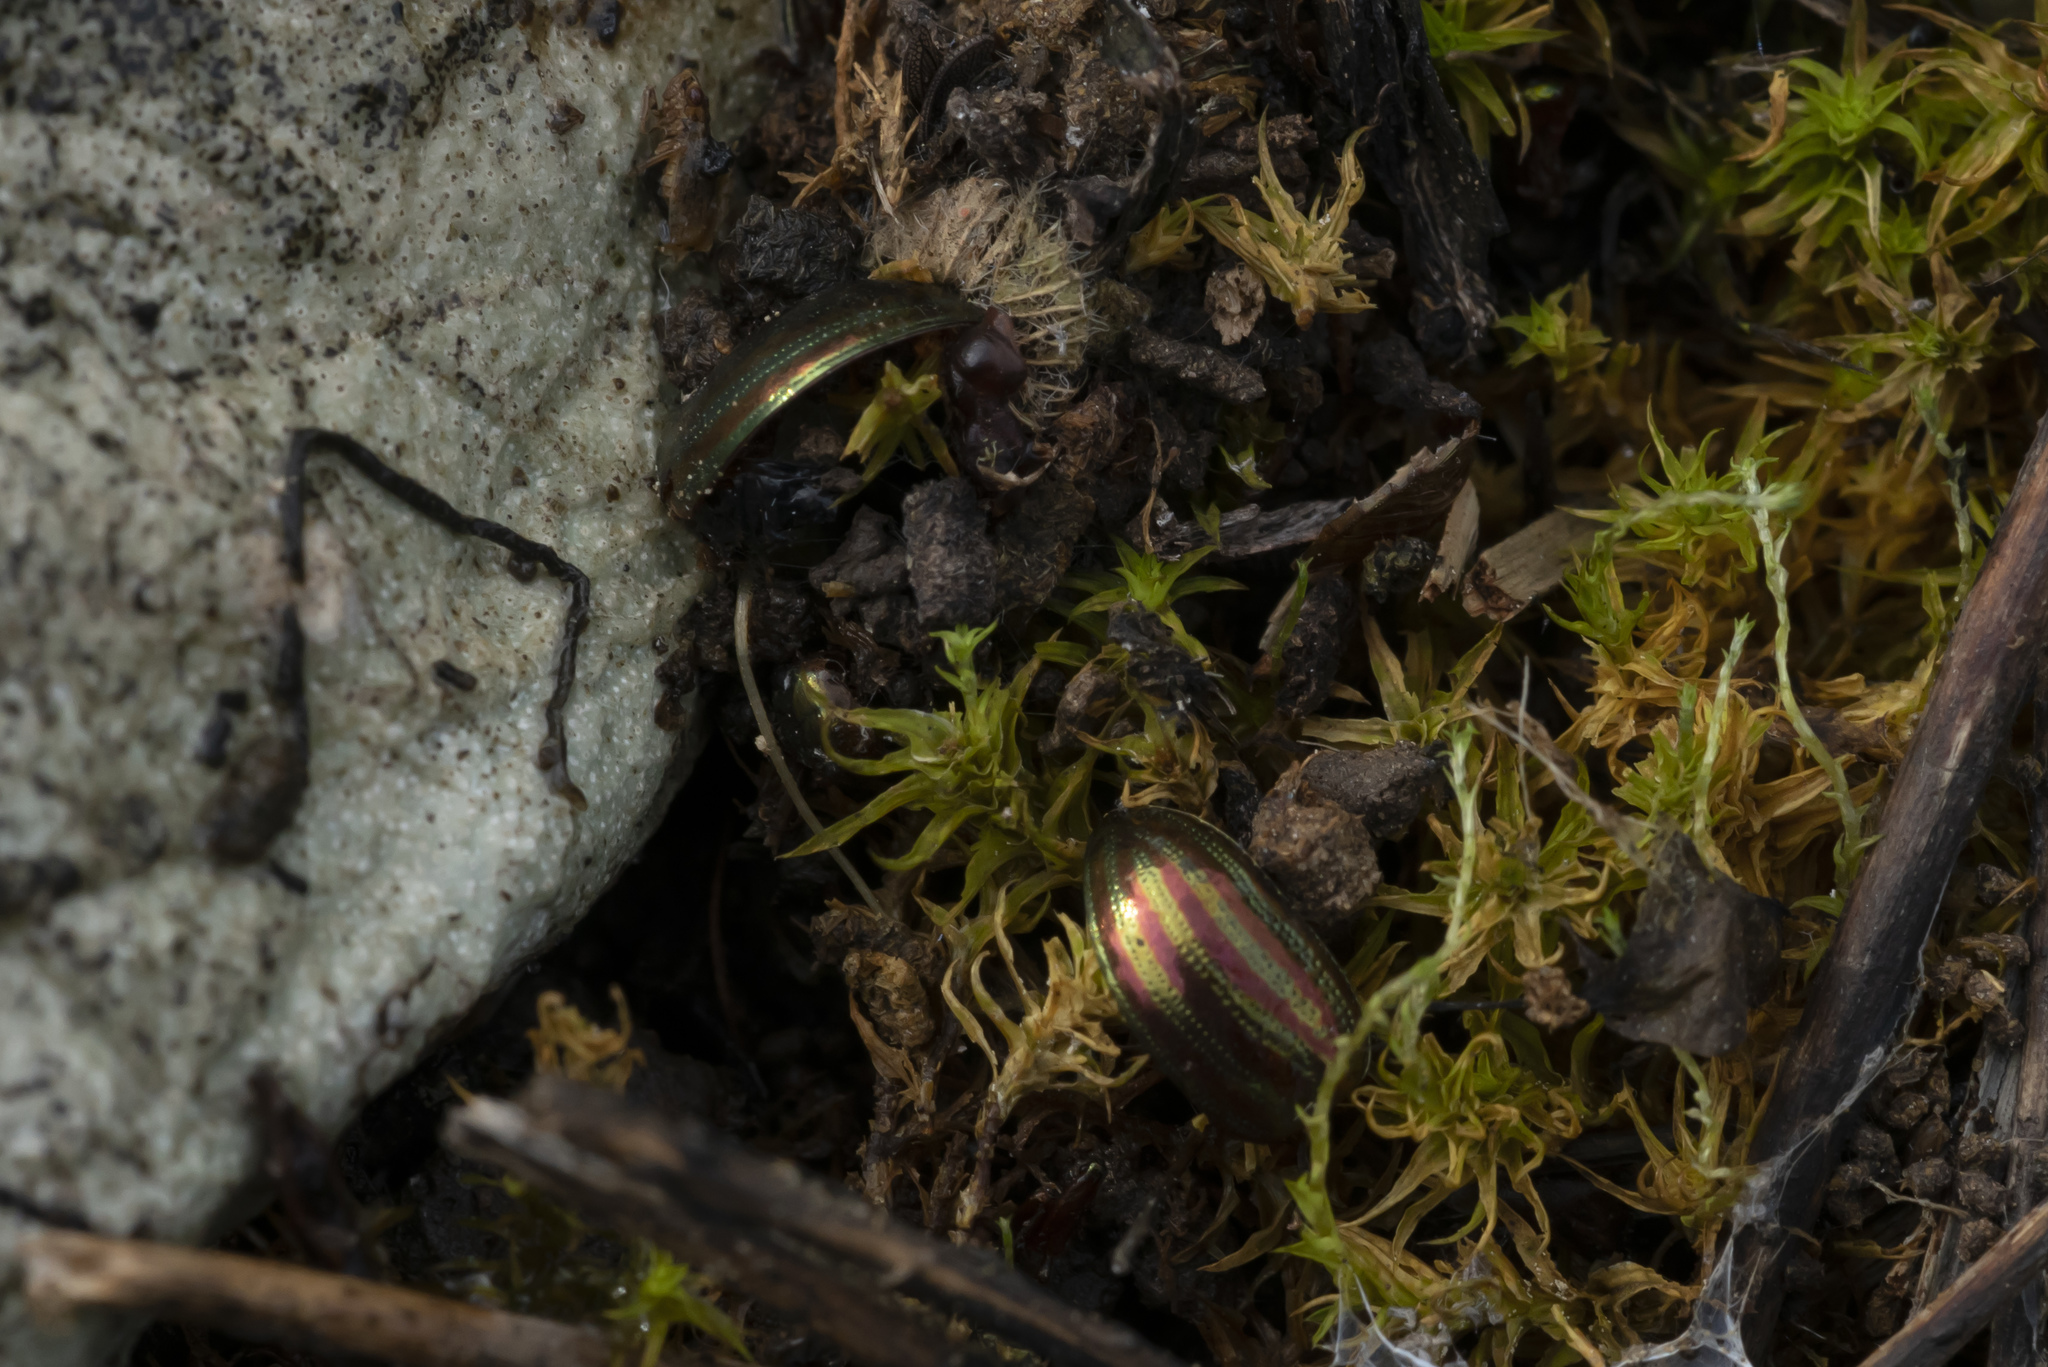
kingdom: Animalia
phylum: Arthropoda
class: Insecta
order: Coleoptera
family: Chrysomelidae
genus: Chrysolina
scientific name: Chrysolina americana
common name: Rosemary beetle
